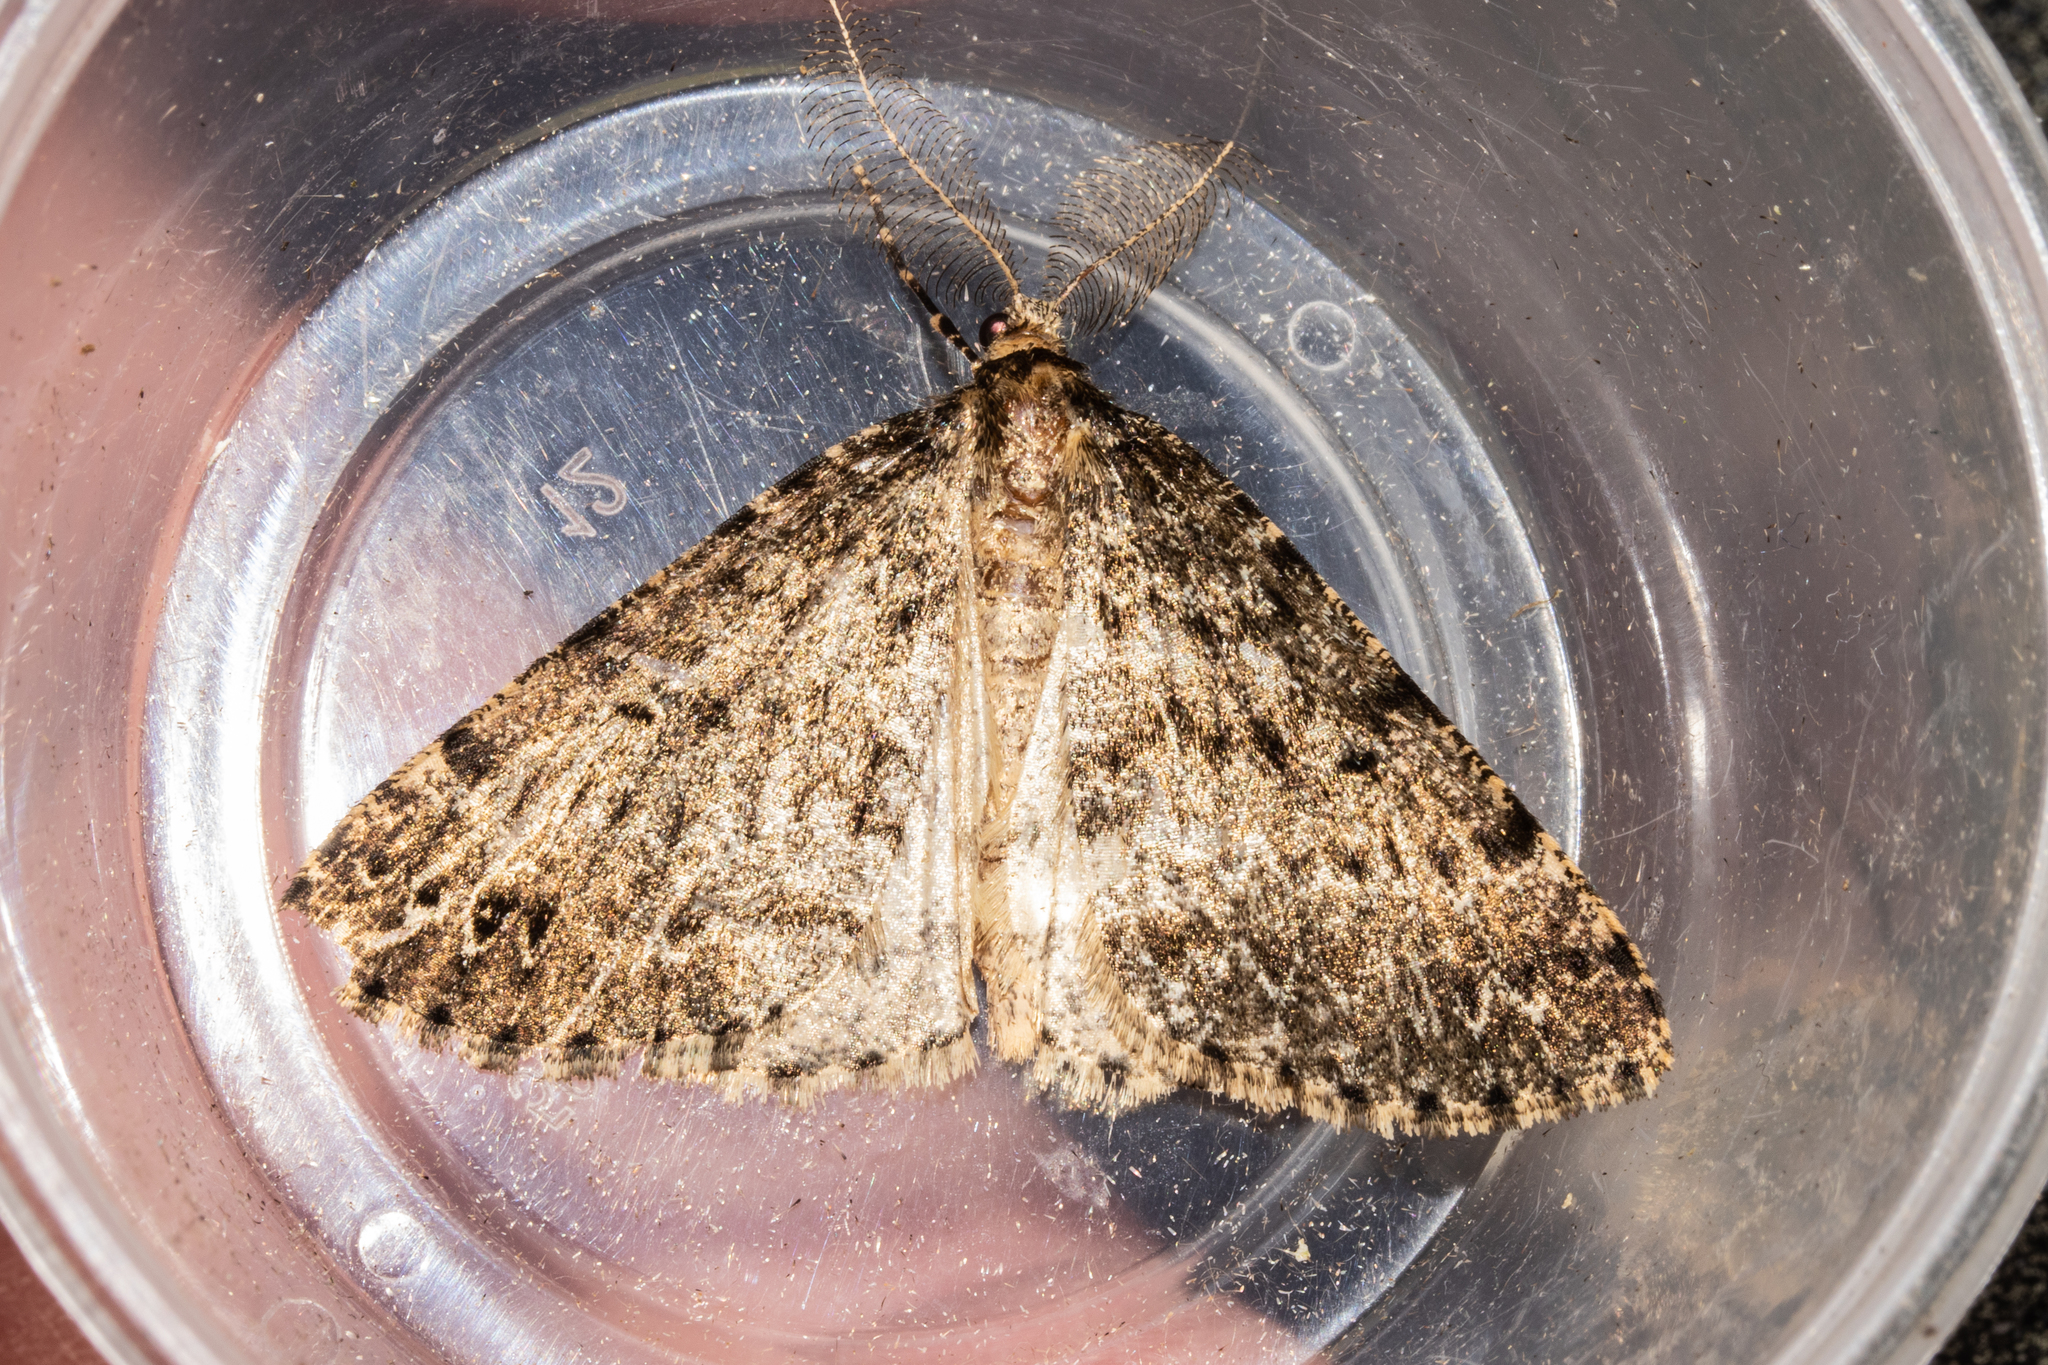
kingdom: Animalia
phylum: Arthropoda
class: Insecta
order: Lepidoptera
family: Geometridae
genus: Pseudocoremia
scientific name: Pseudocoremia terrena
